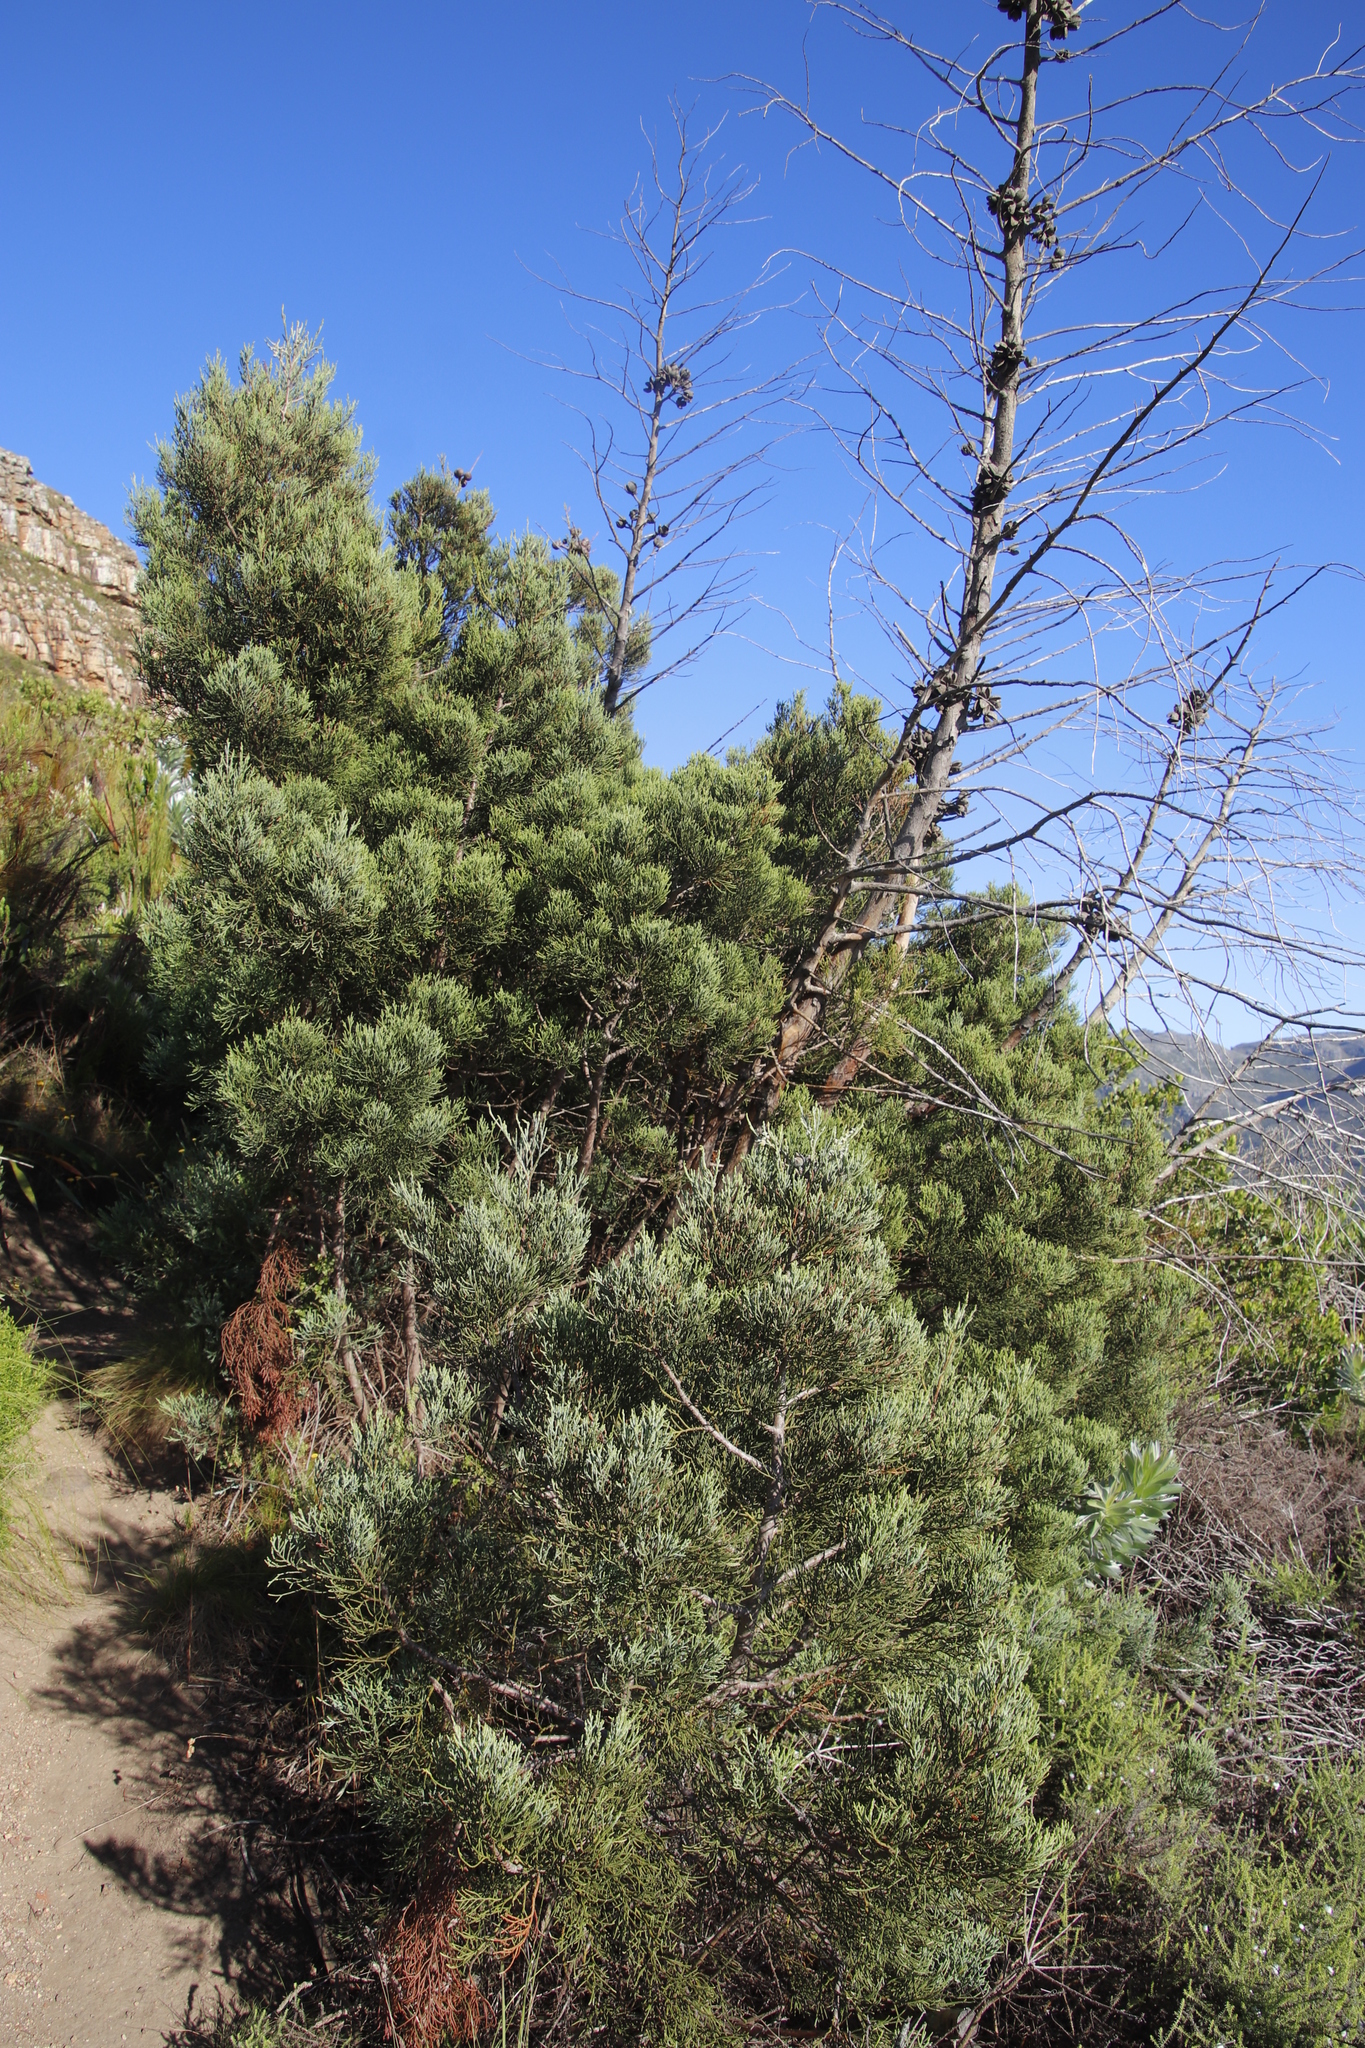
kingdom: Plantae
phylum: Tracheophyta
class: Pinopsida
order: Pinales
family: Cupressaceae
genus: Widdringtonia
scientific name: Widdringtonia nodiflora
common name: Cape cypress
